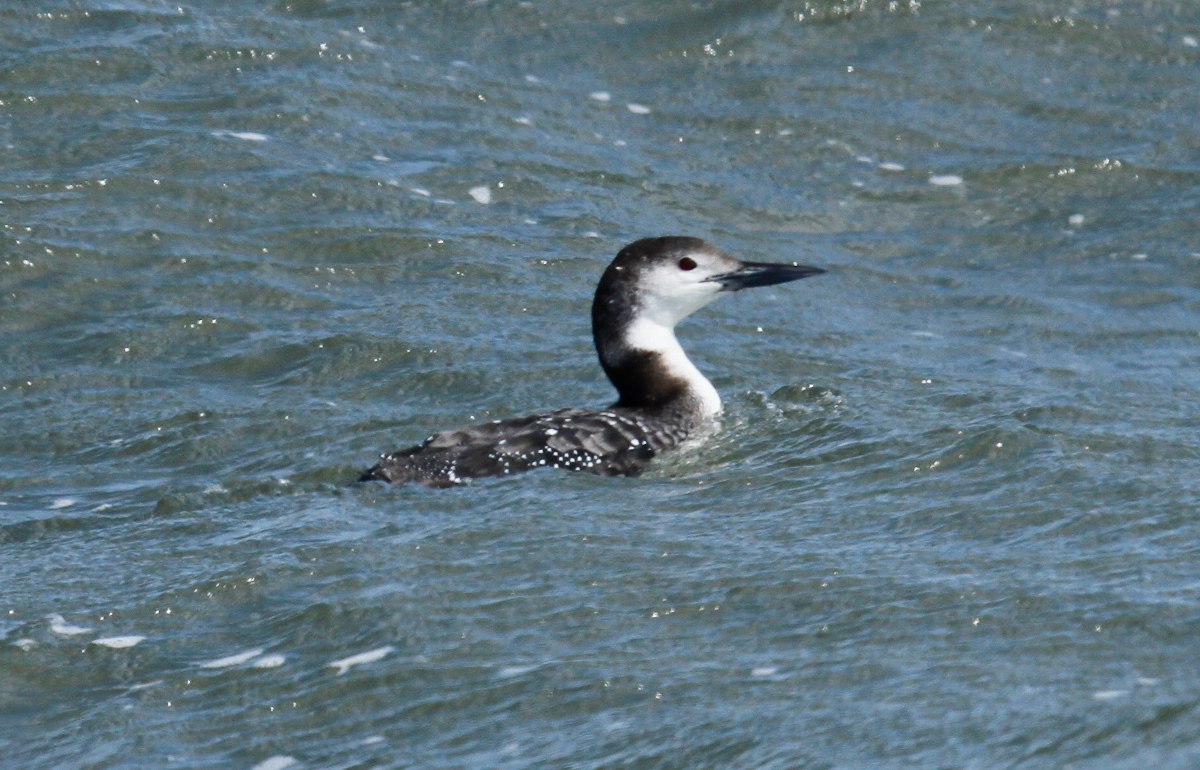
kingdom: Animalia
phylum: Chordata
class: Aves
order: Gaviiformes
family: Gaviidae
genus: Gavia
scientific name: Gavia immer
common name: Common loon
